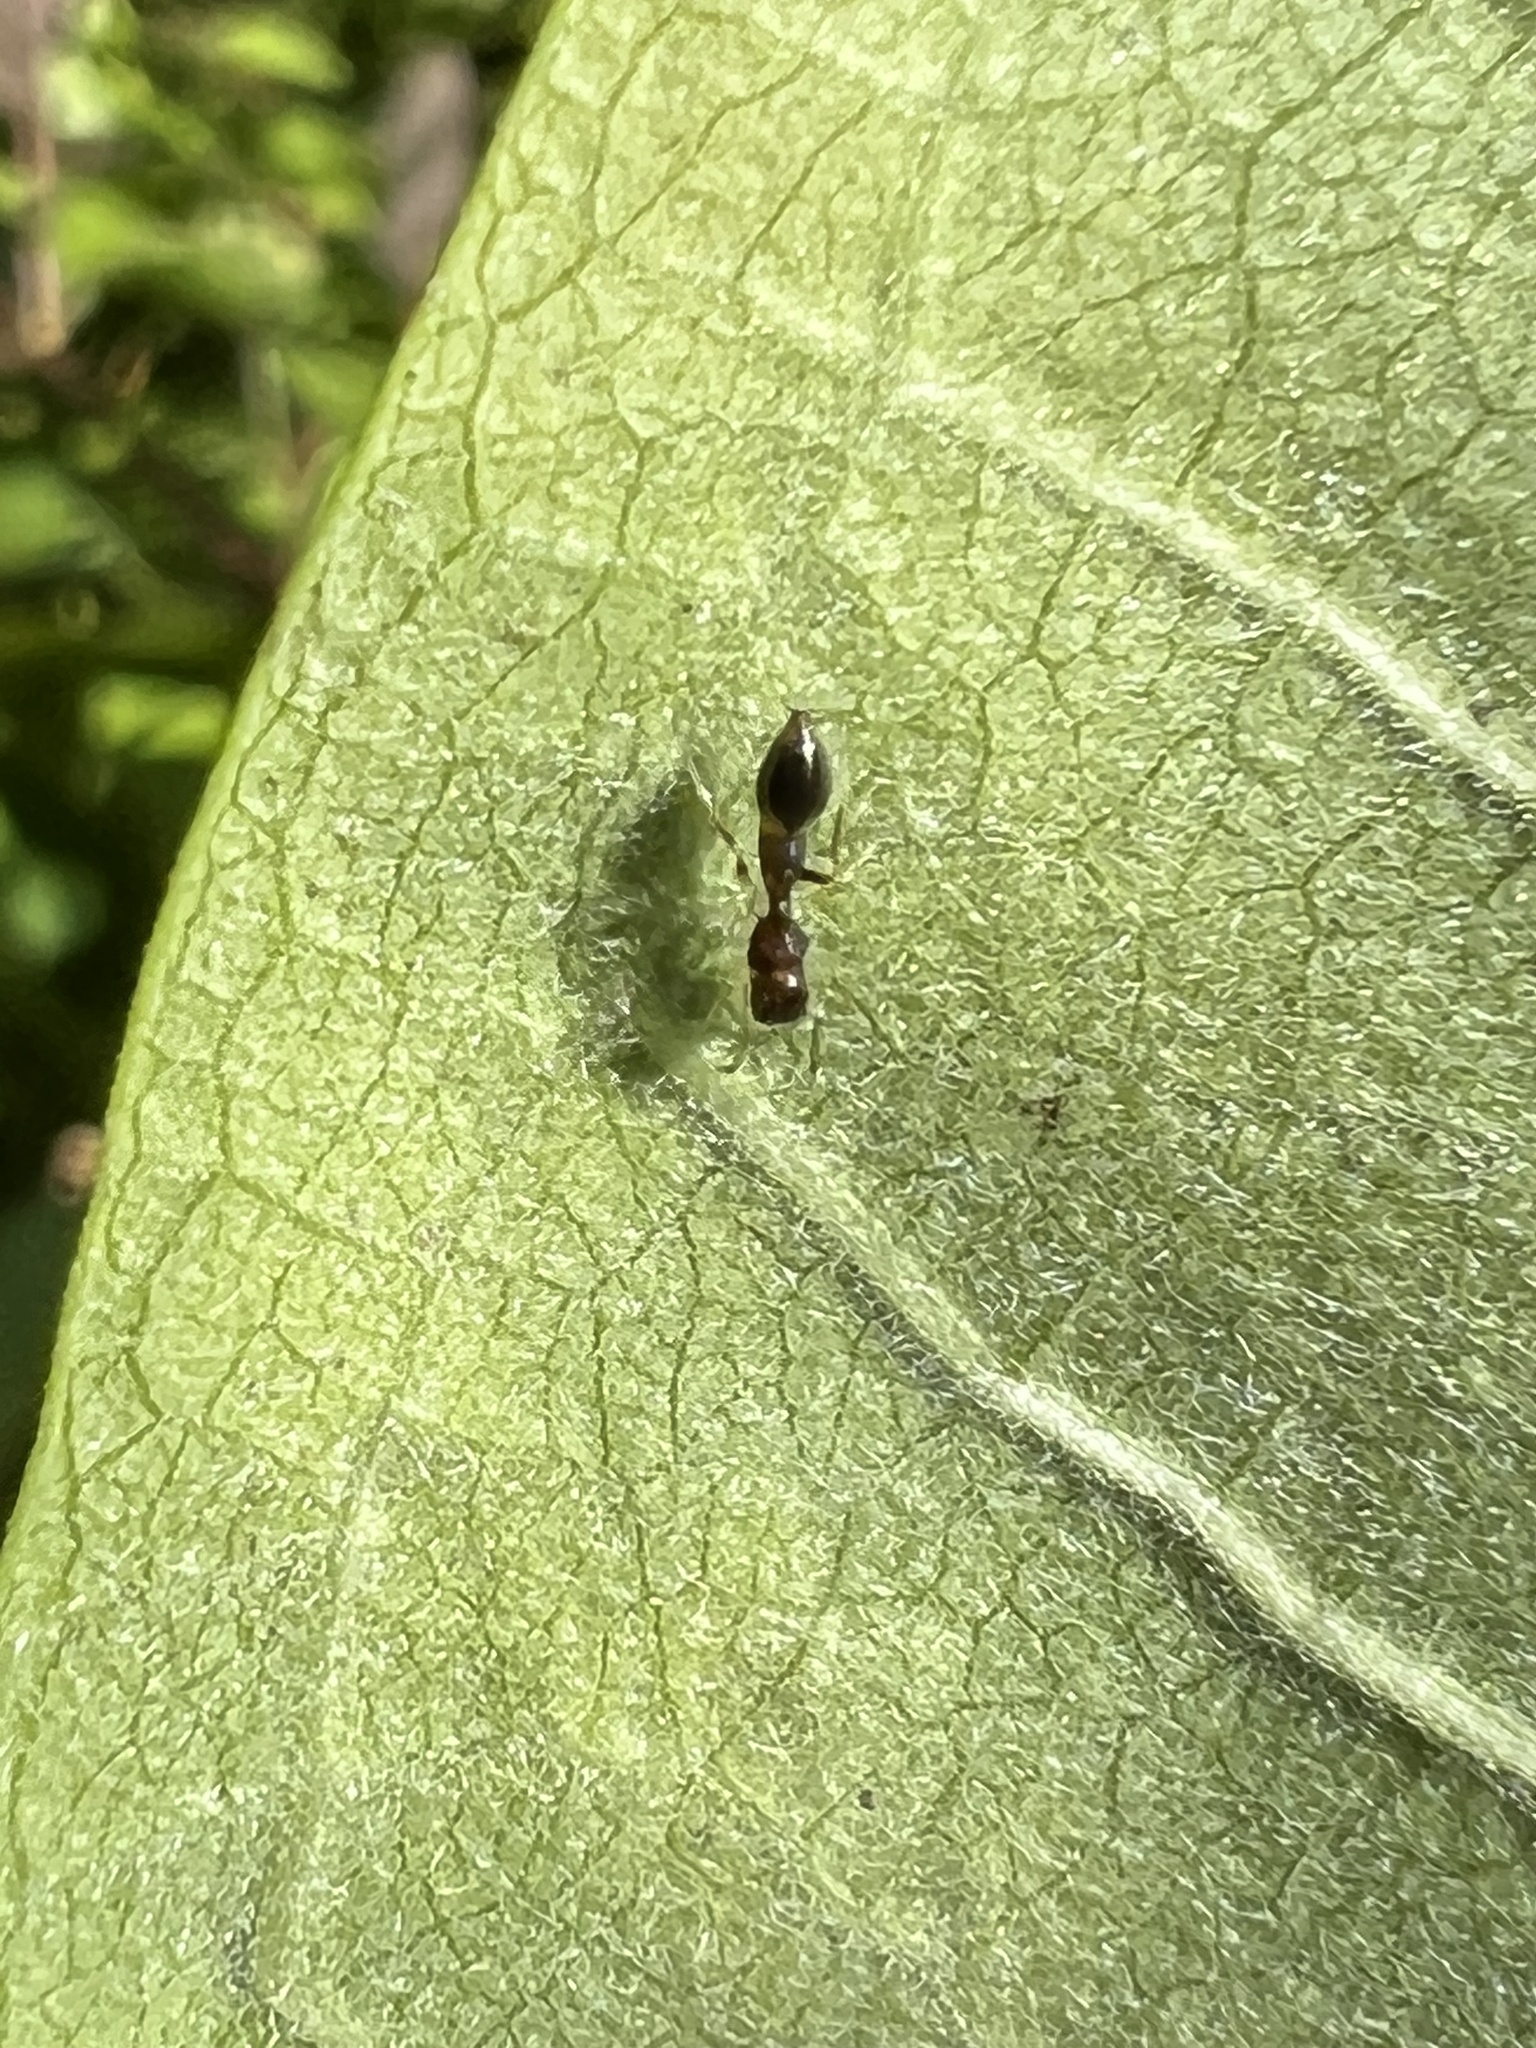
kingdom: Animalia
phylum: Arthropoda
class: Arachnida
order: Araneae
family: Salticidae
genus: Synemosyna
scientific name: Synemosyna formica
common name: Slender ant-mimic jumping spider
